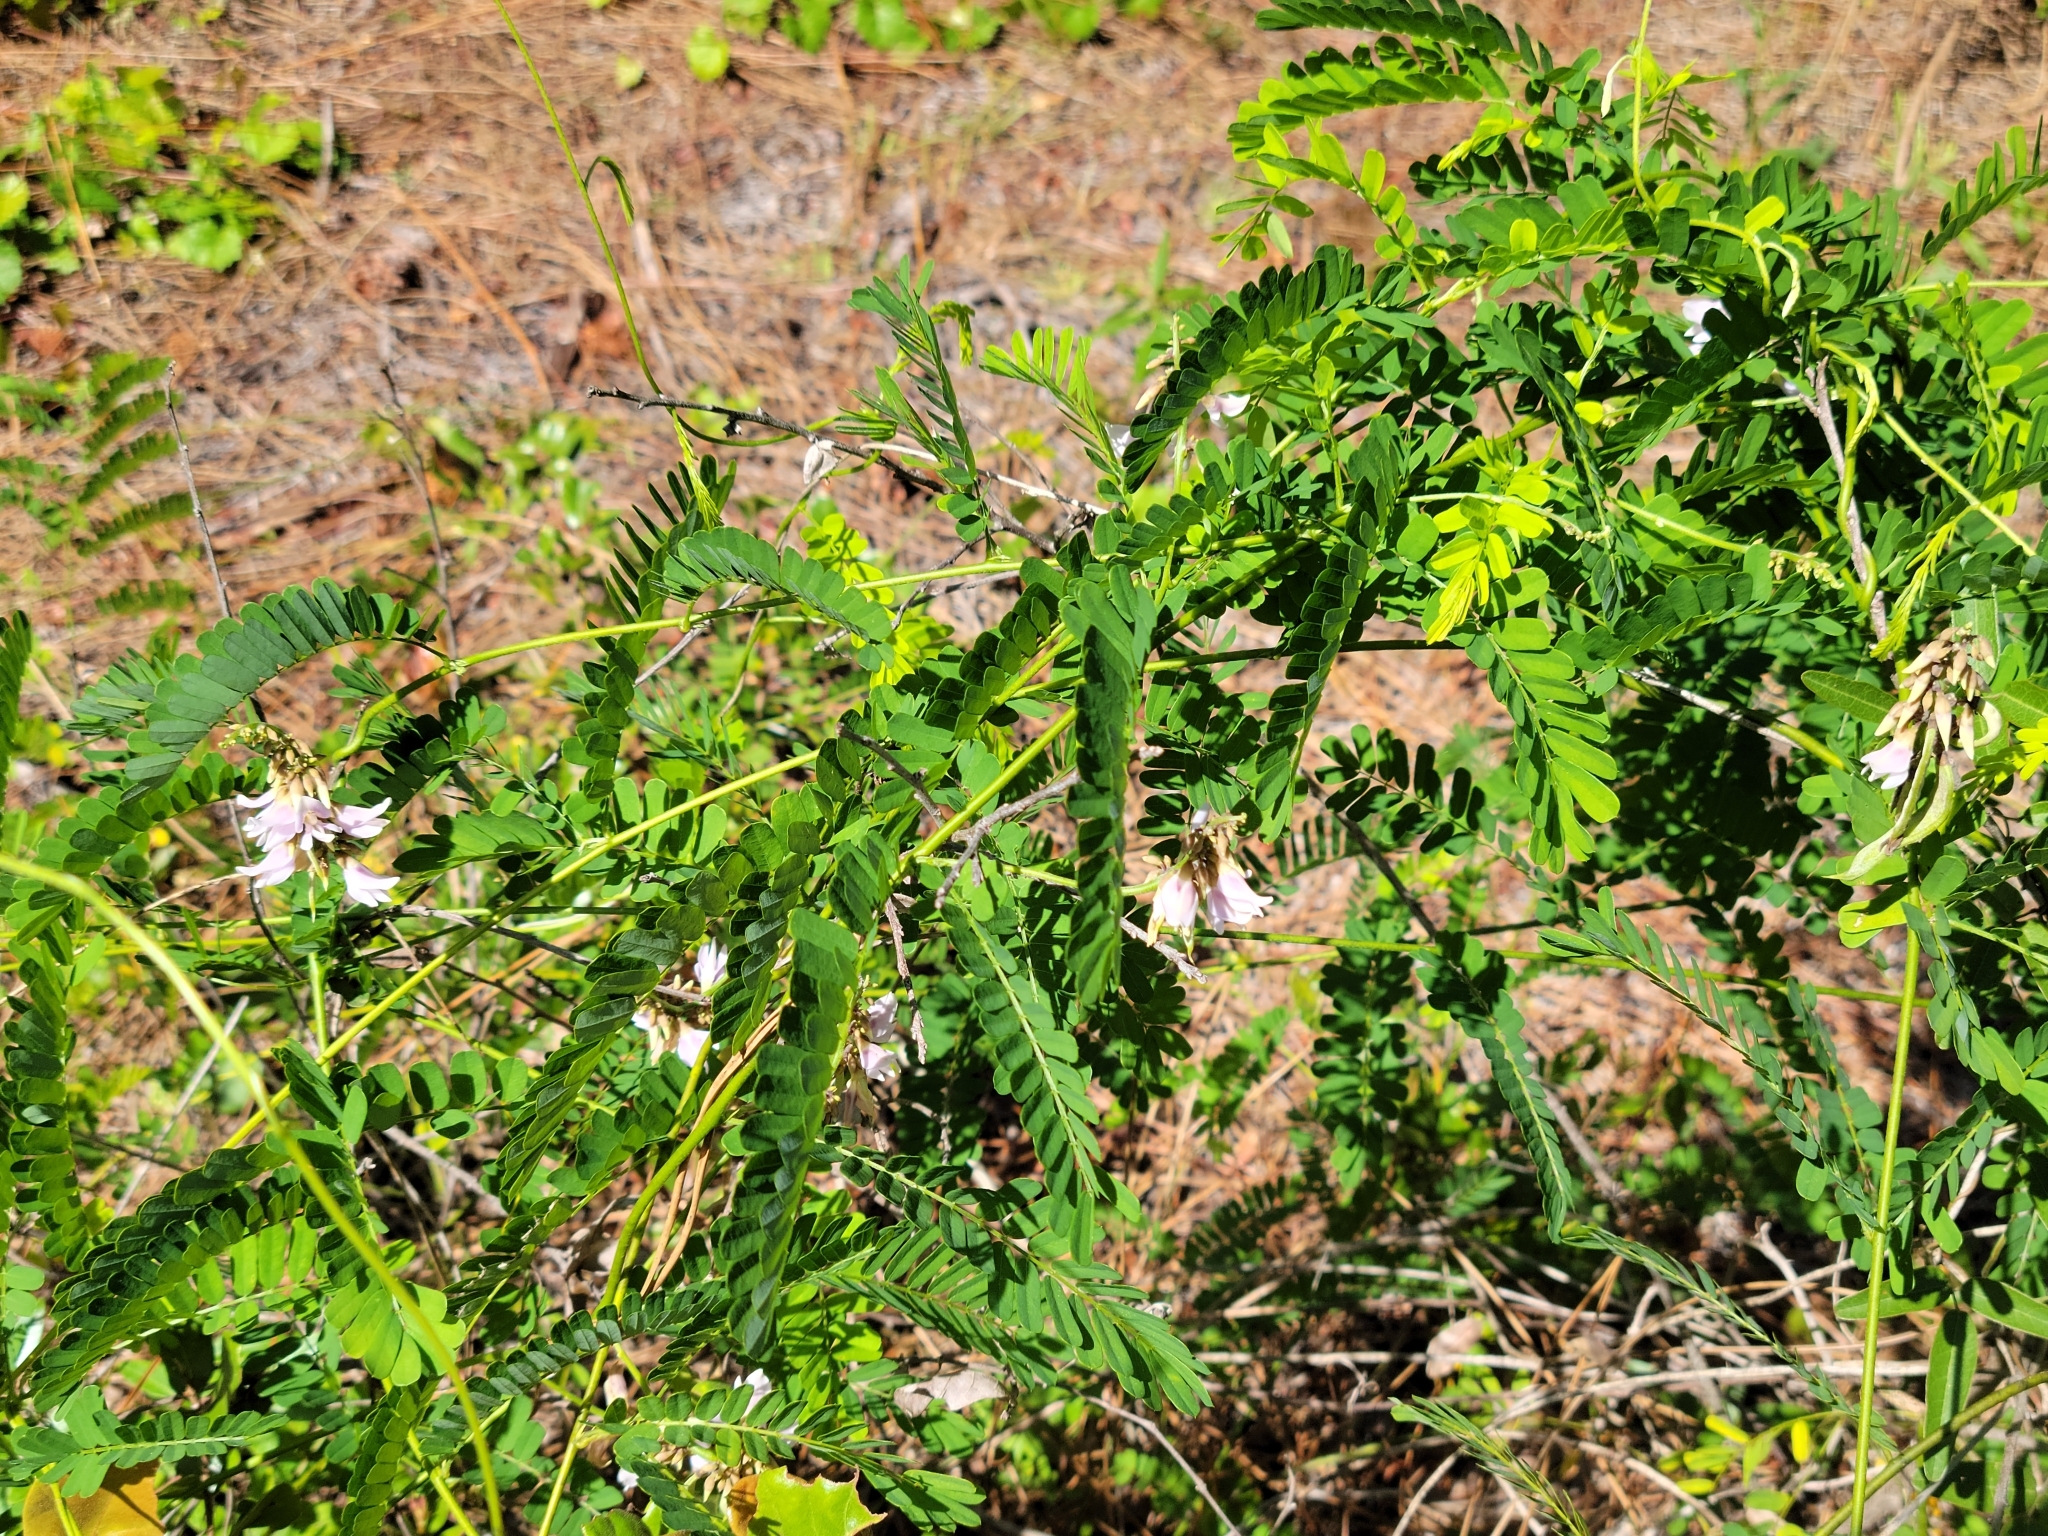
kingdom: Plantae
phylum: Tracheophyta
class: Magnoliopsida
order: Fabales
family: Fabaceae
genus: Abrus
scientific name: Abrus precatorius
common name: Rosarypea
